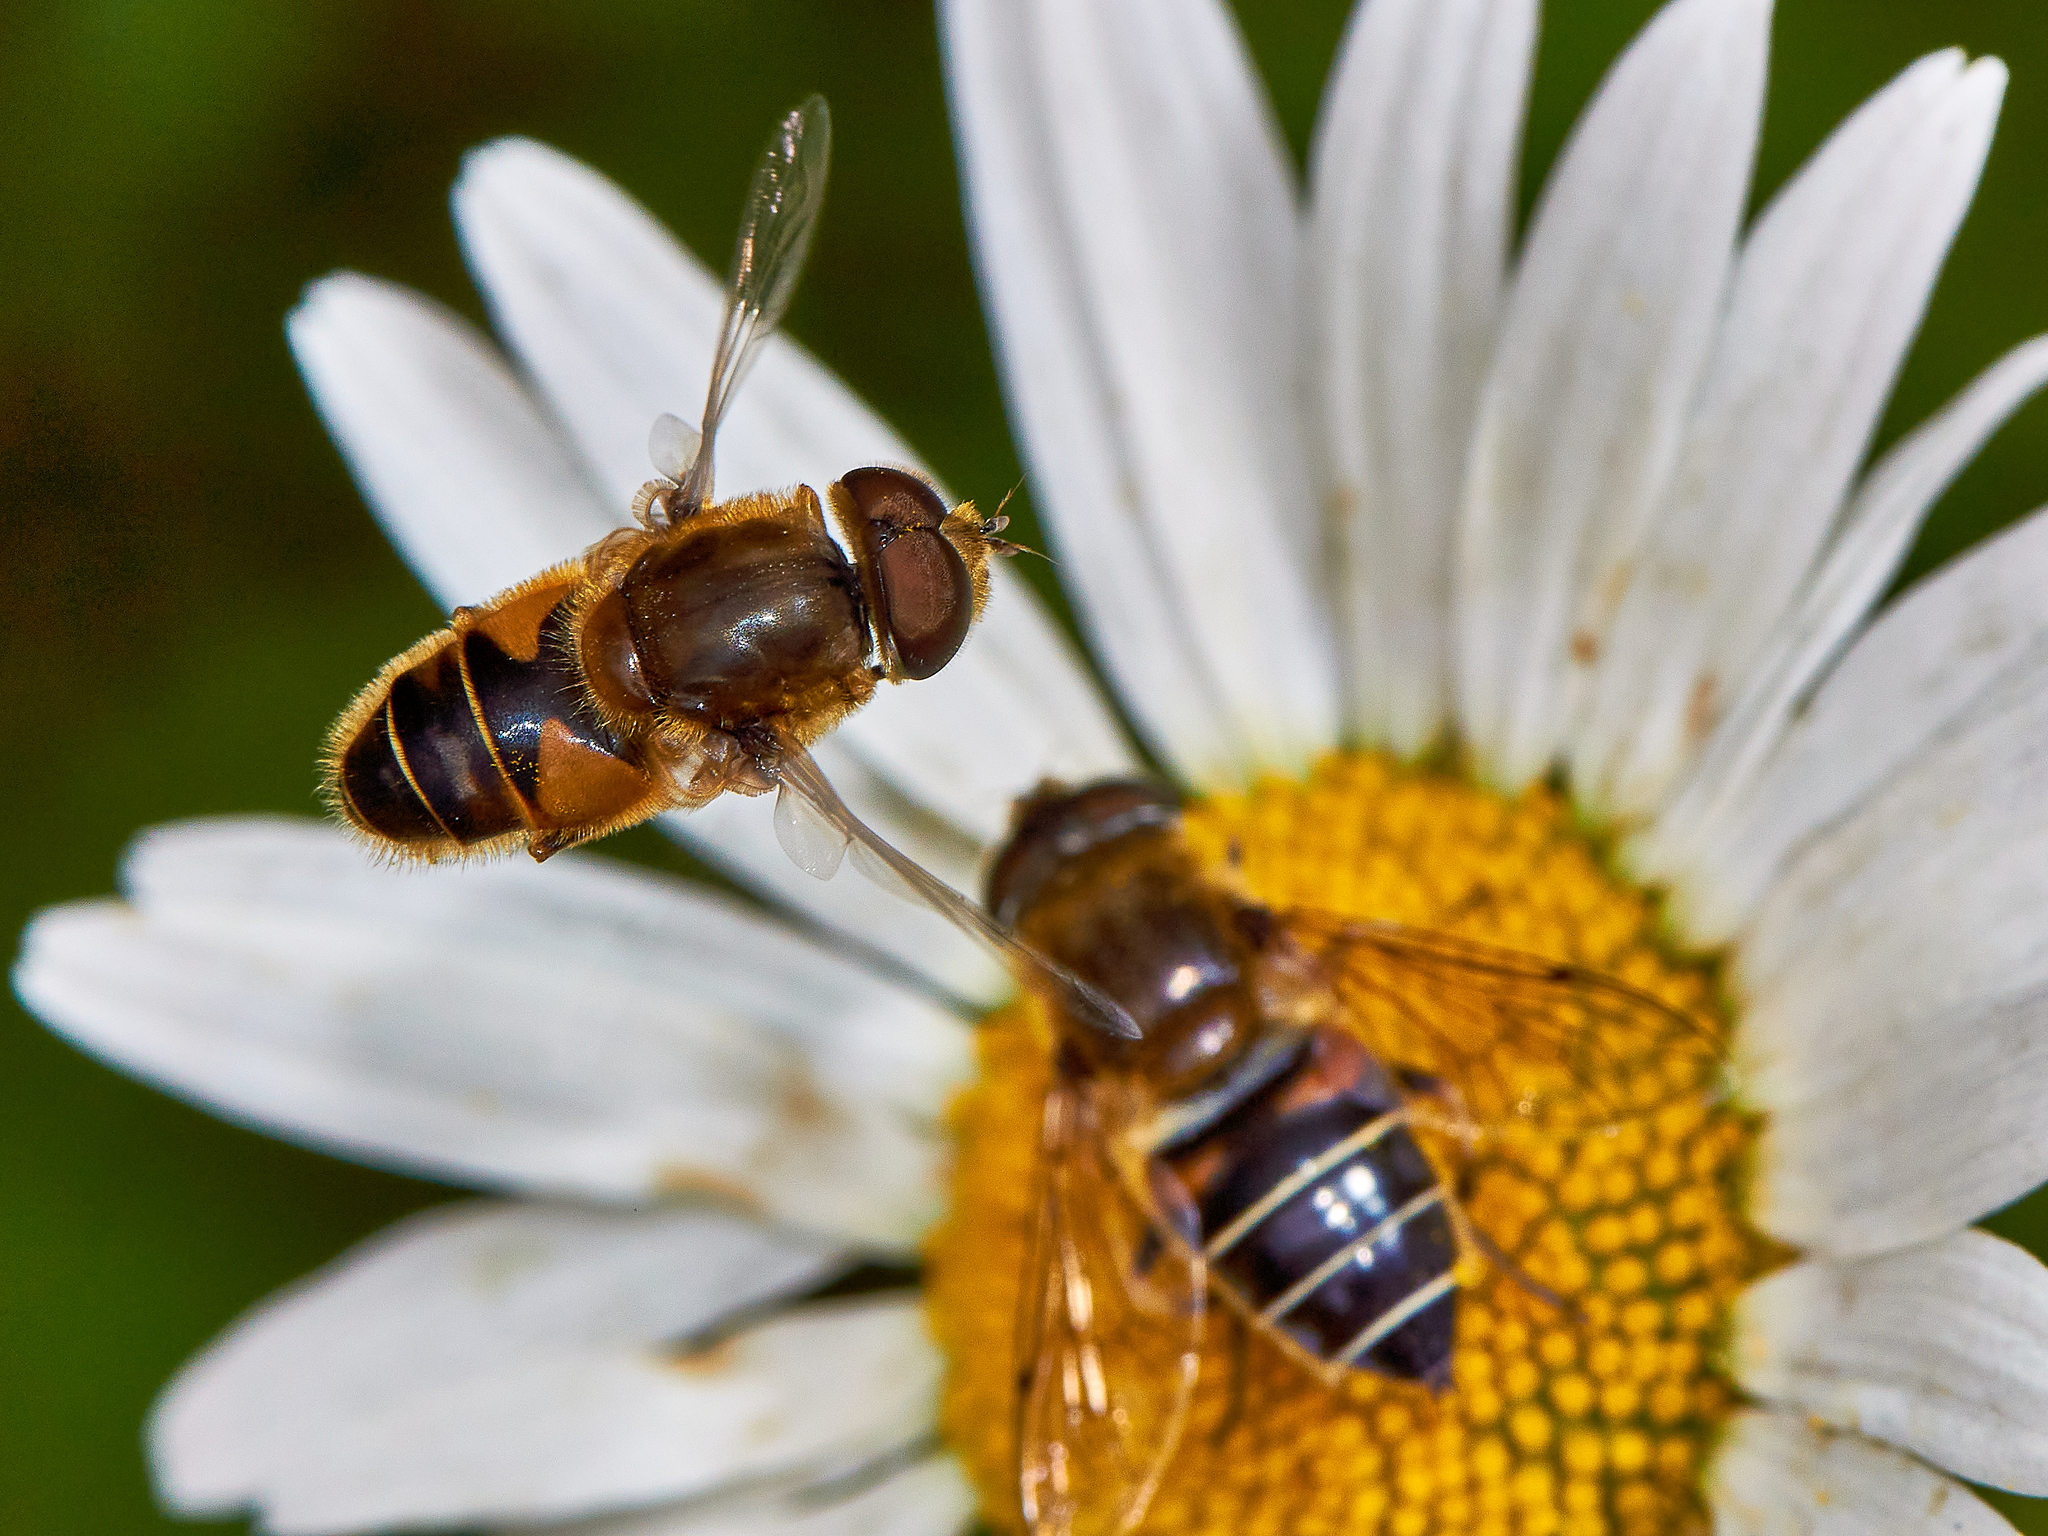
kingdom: Animalia
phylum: Arthropoda
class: Insecta
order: Diptera
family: Syrphidae
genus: Eristalis
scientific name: Eristalis nemorum
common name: Orange-spined drone fly
